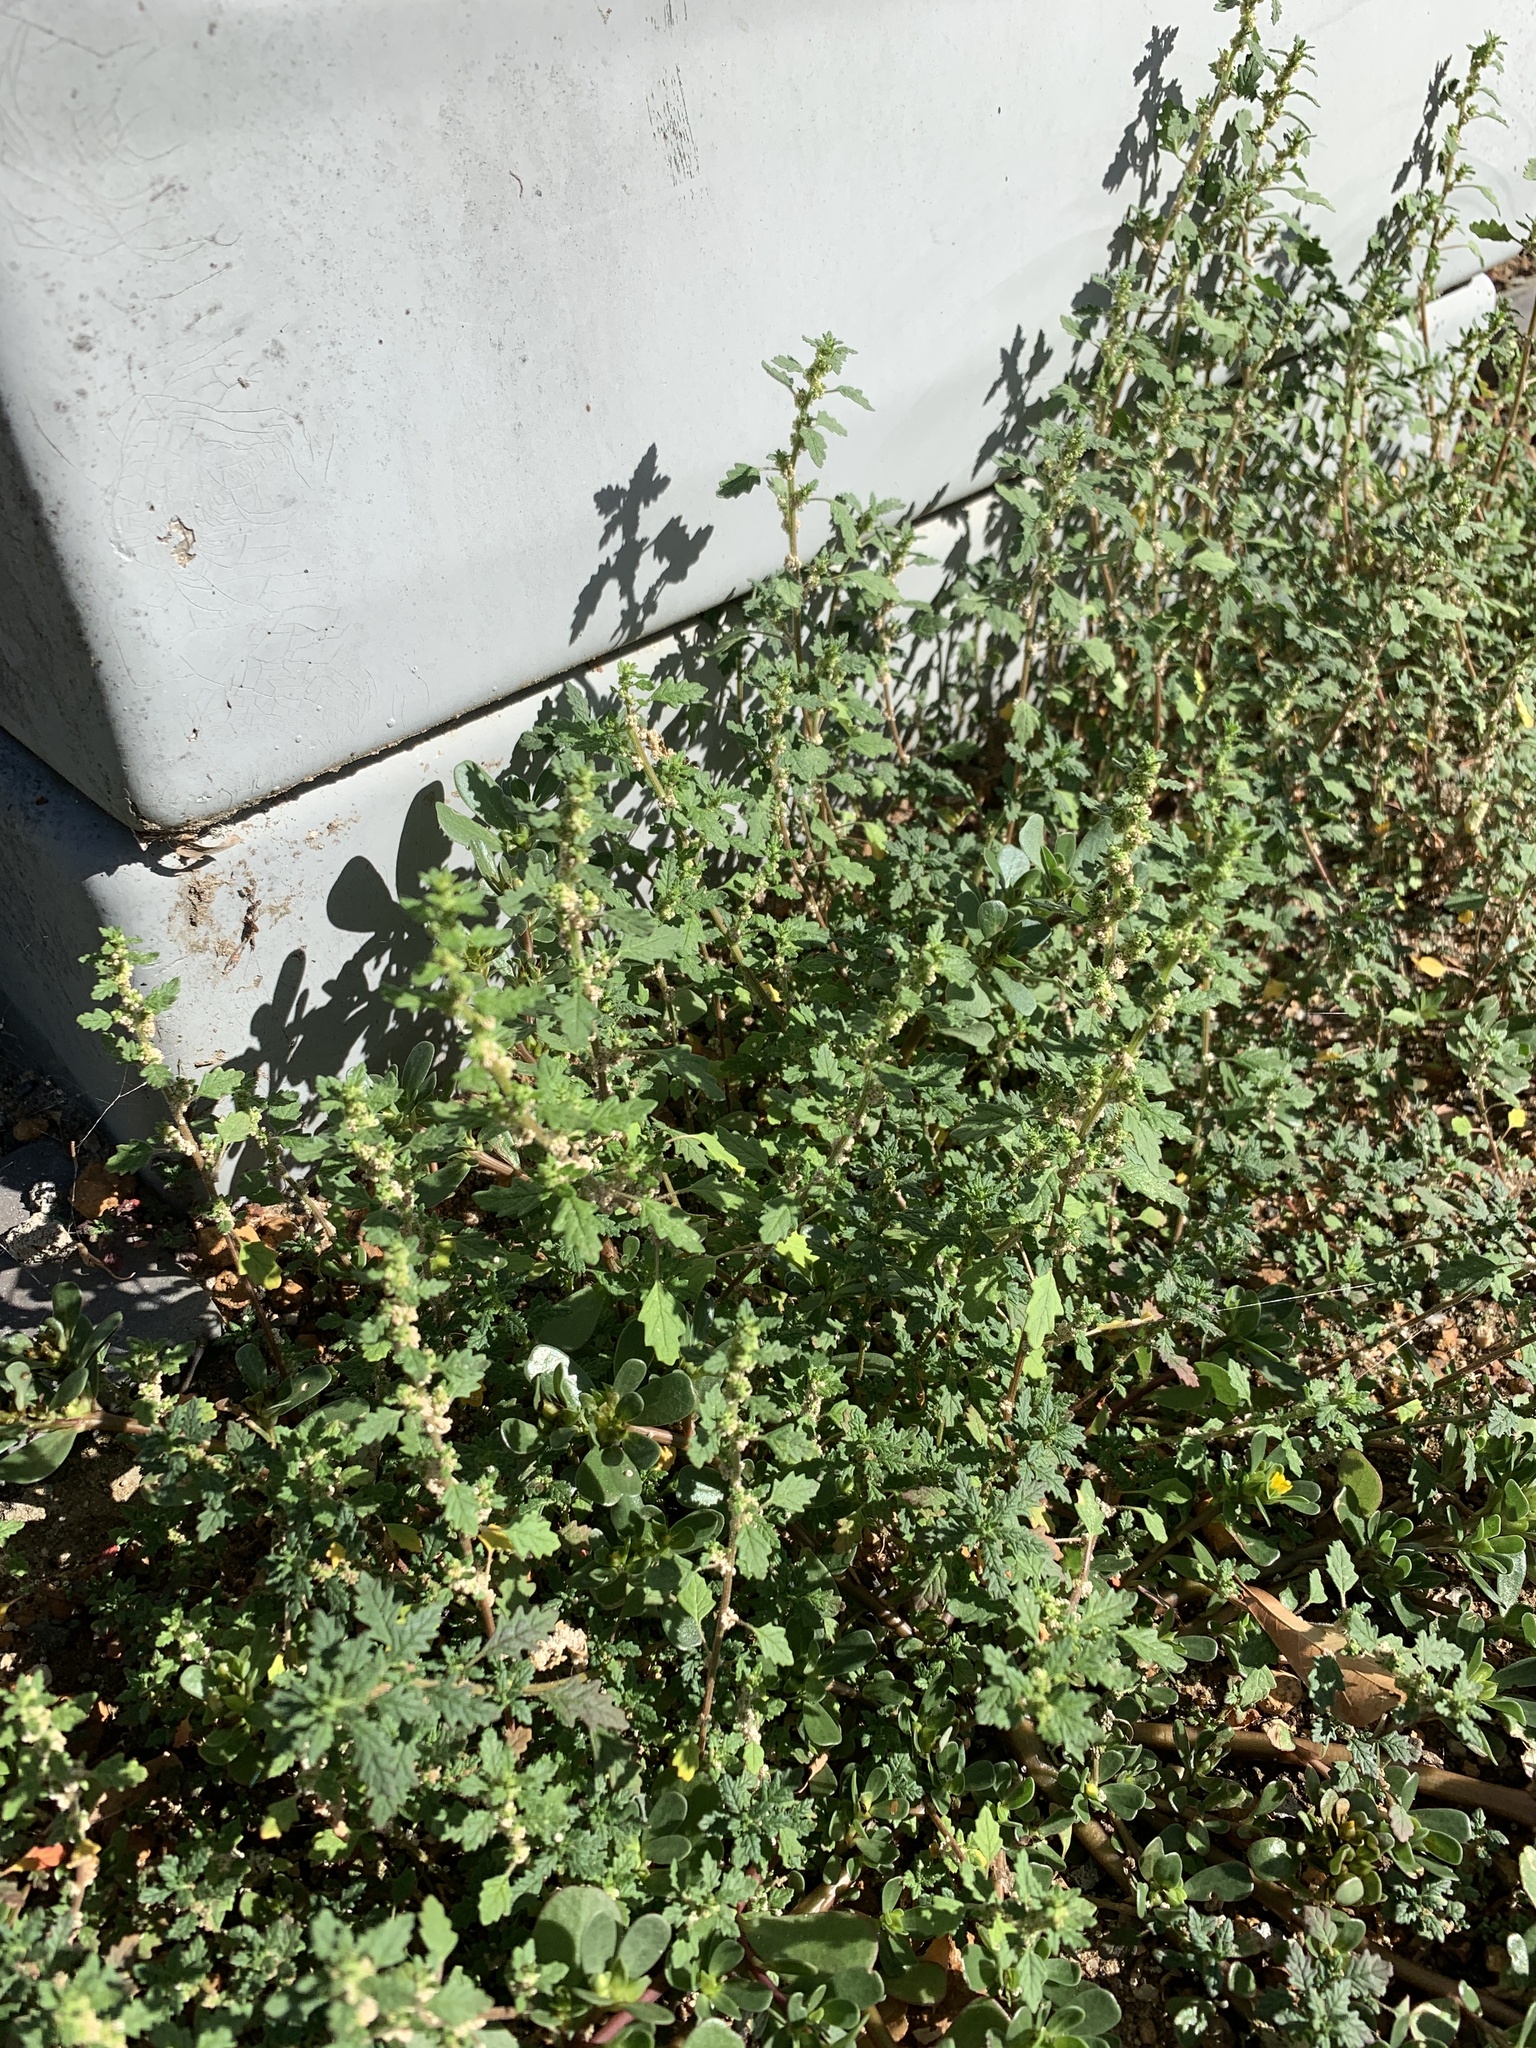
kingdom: Plantae
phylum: Tracheophyta
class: Magnoliopsida
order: Caryophyllales
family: Amaranthaceae
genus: Dysphania
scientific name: Dysphania pumilio
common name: Clammy goosefoot
